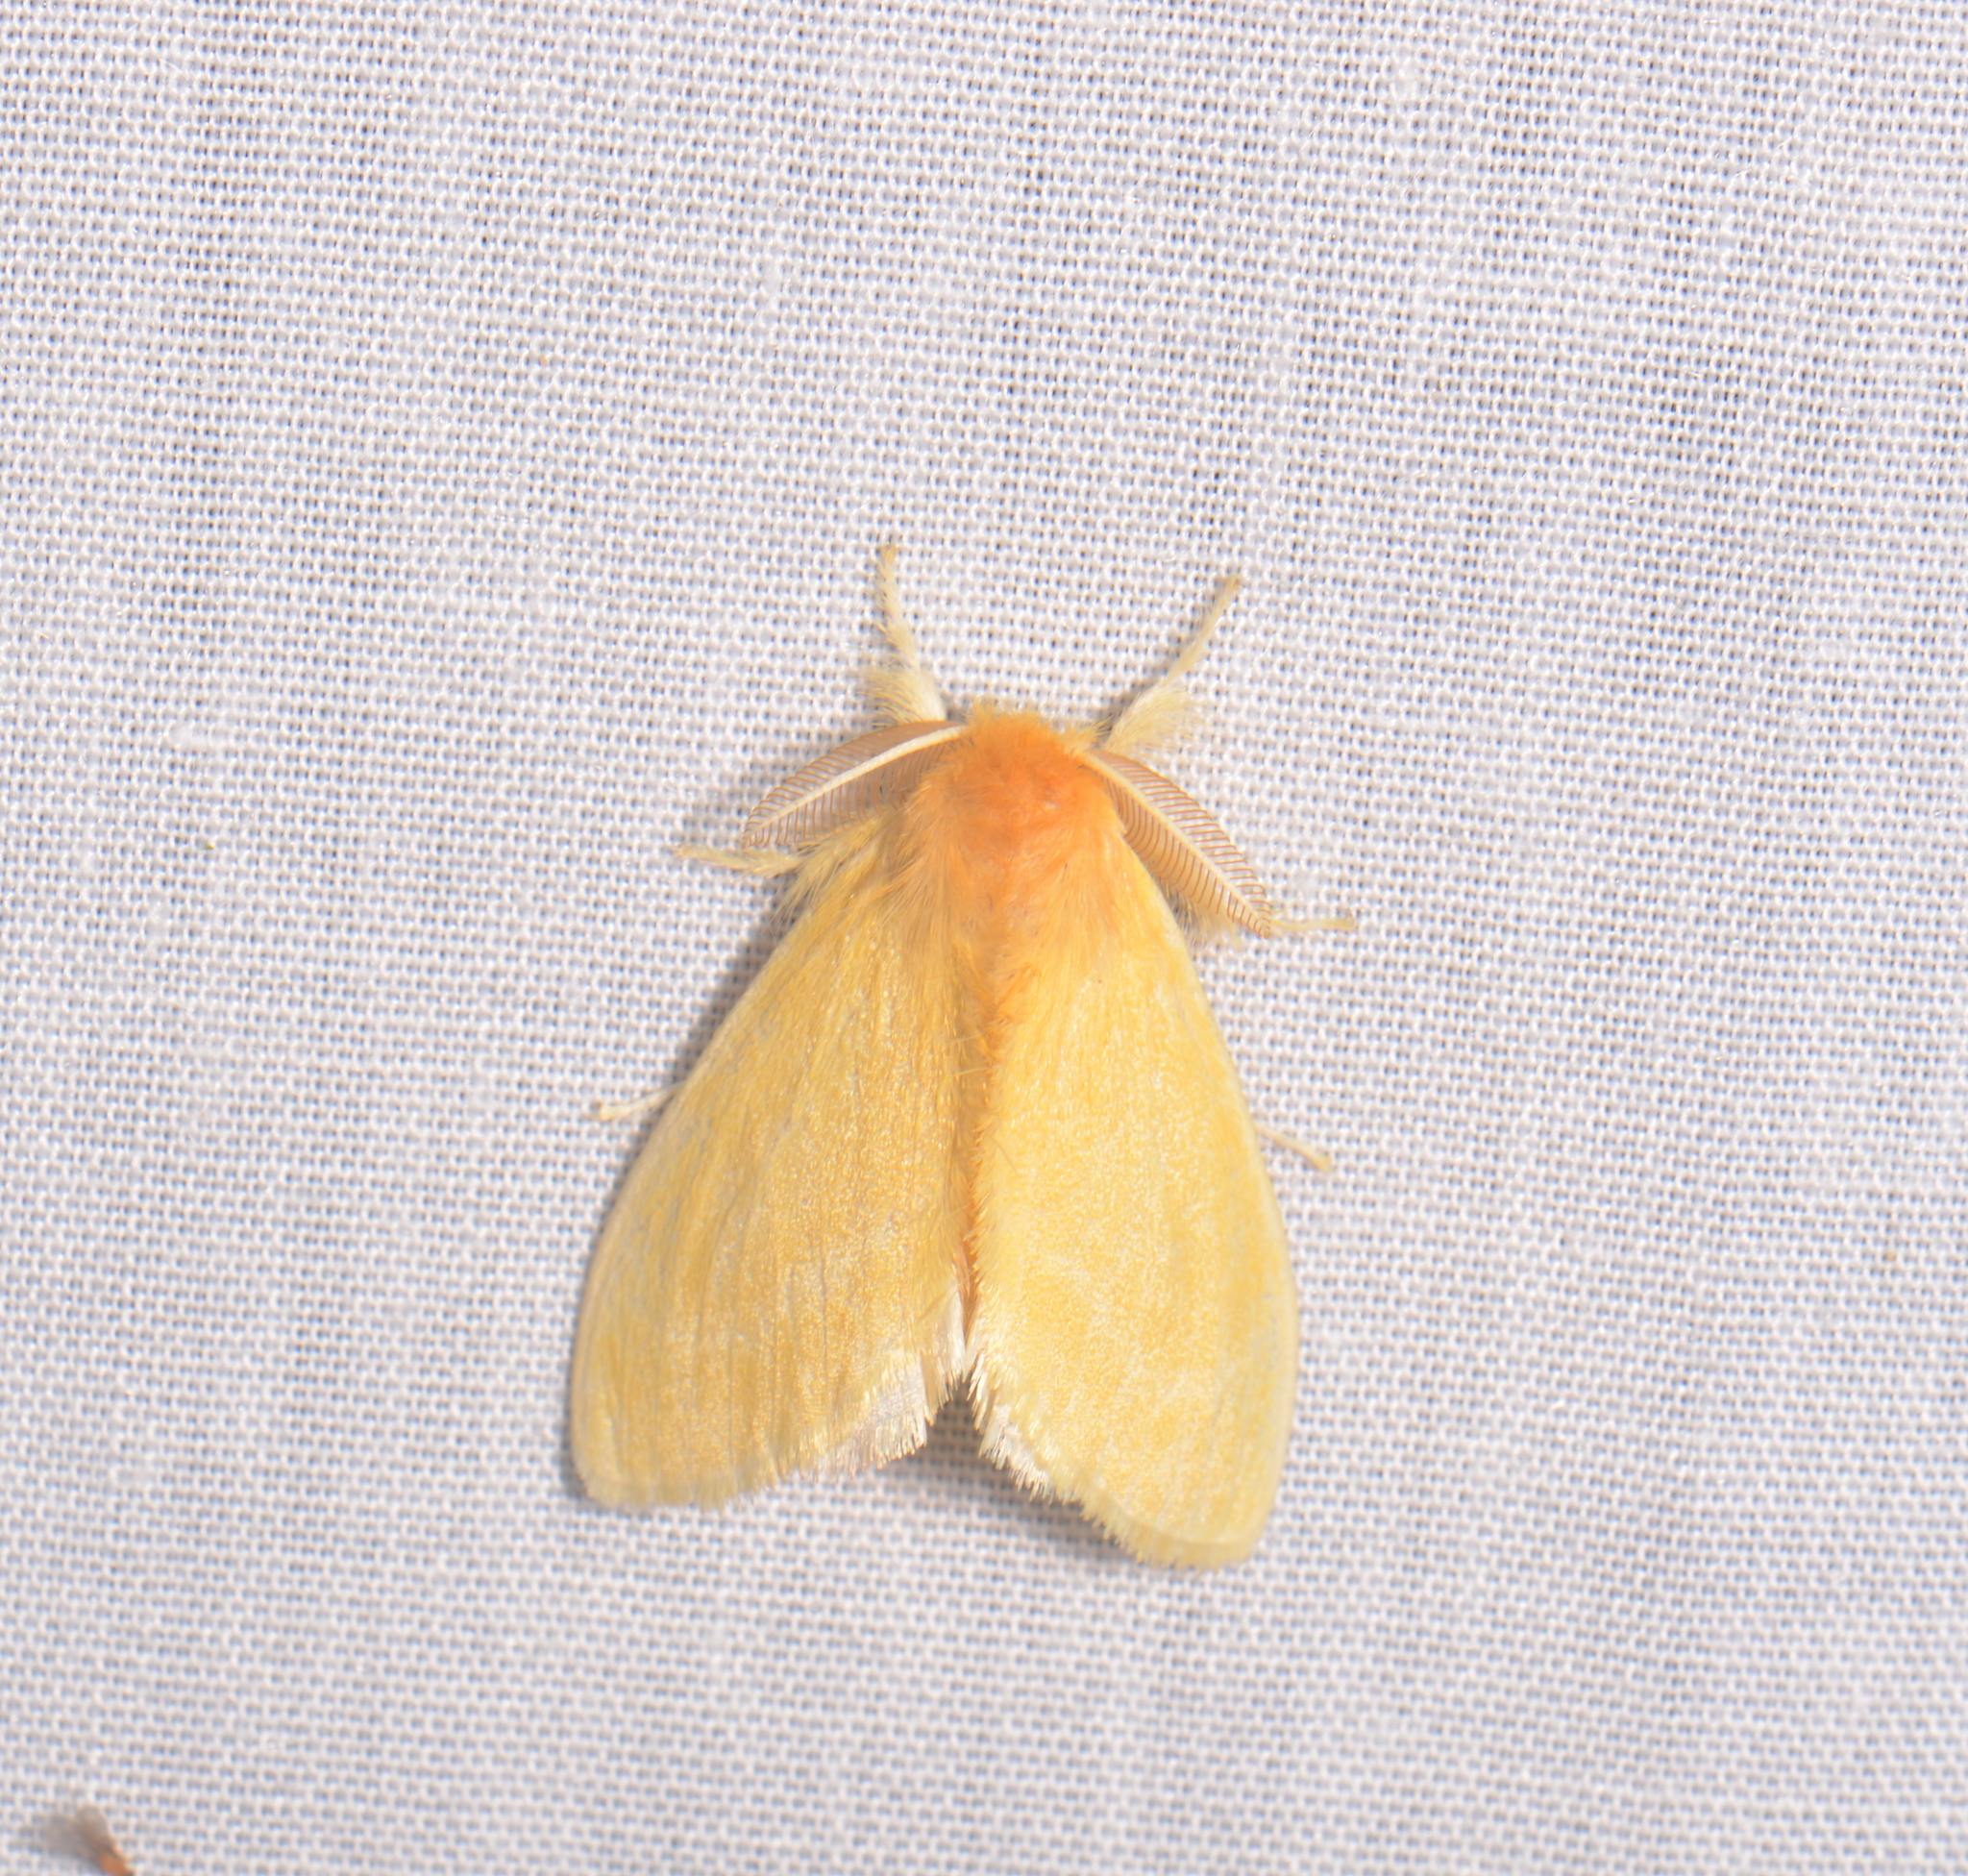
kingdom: Animalia
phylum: Arthropoda
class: Insecta
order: Lepidoptera
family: Erebidae
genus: Toxoproctis
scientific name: Toxoproctis dyssema
